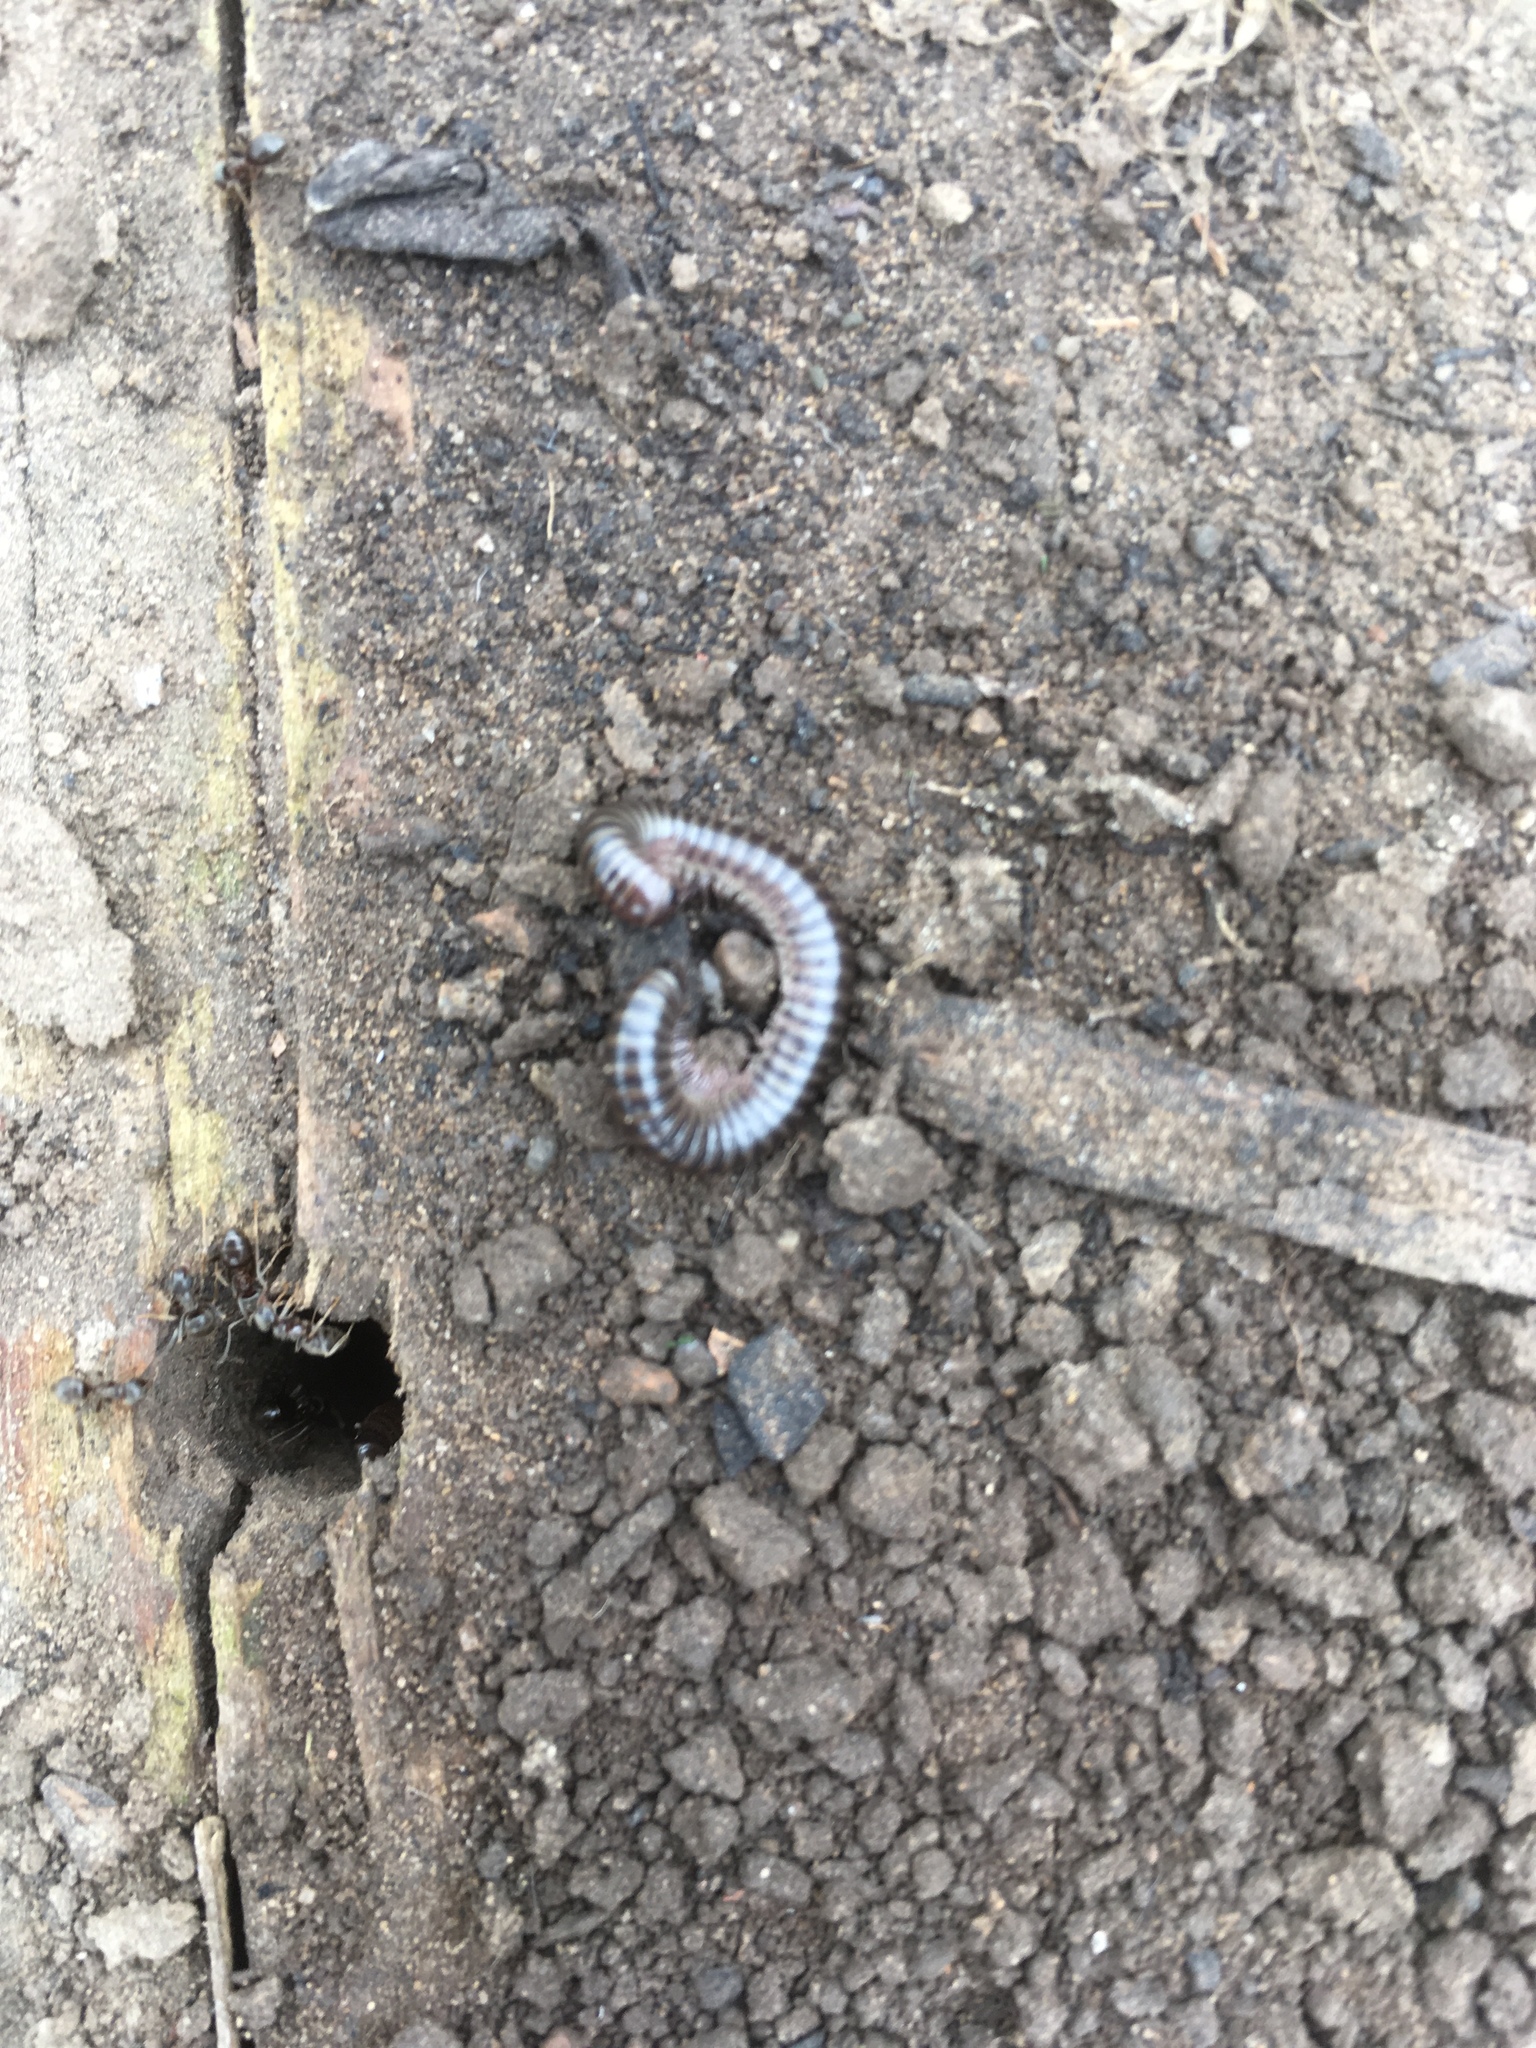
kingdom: Animalia
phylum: Arthropoda
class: Diplopoda
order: Julida
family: Julidae
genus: Cylindroiulus
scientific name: Cylindroiulus caeruleocinctus
